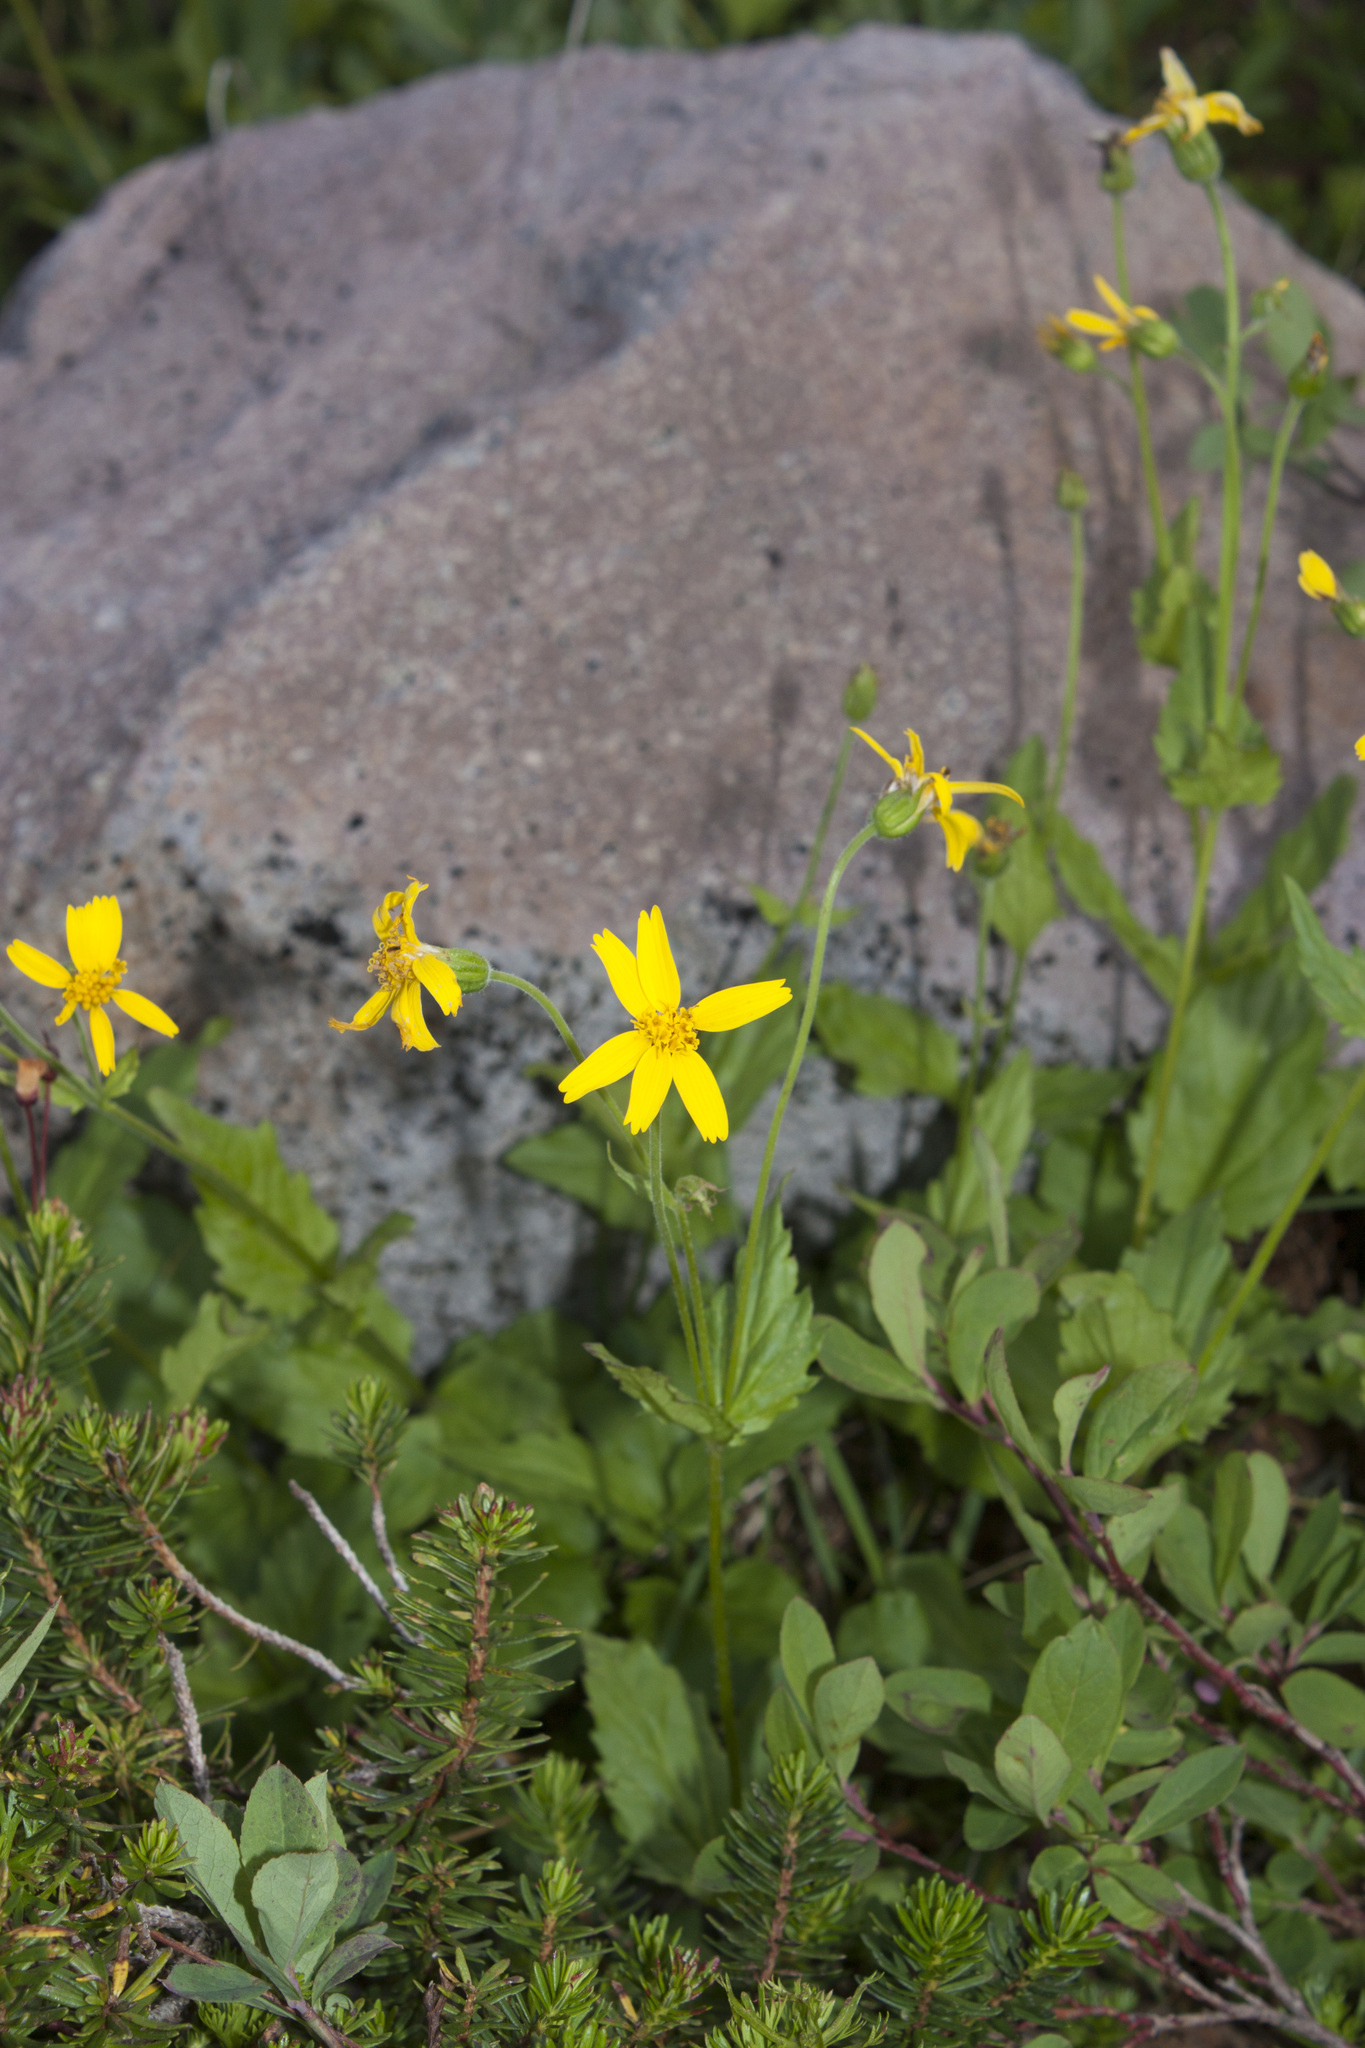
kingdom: Plantae
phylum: Tracheophyta
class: Magnoliopsida
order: Asterales
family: Asteraceae
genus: Arnica
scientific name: Arnica latifolia
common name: Arnica
